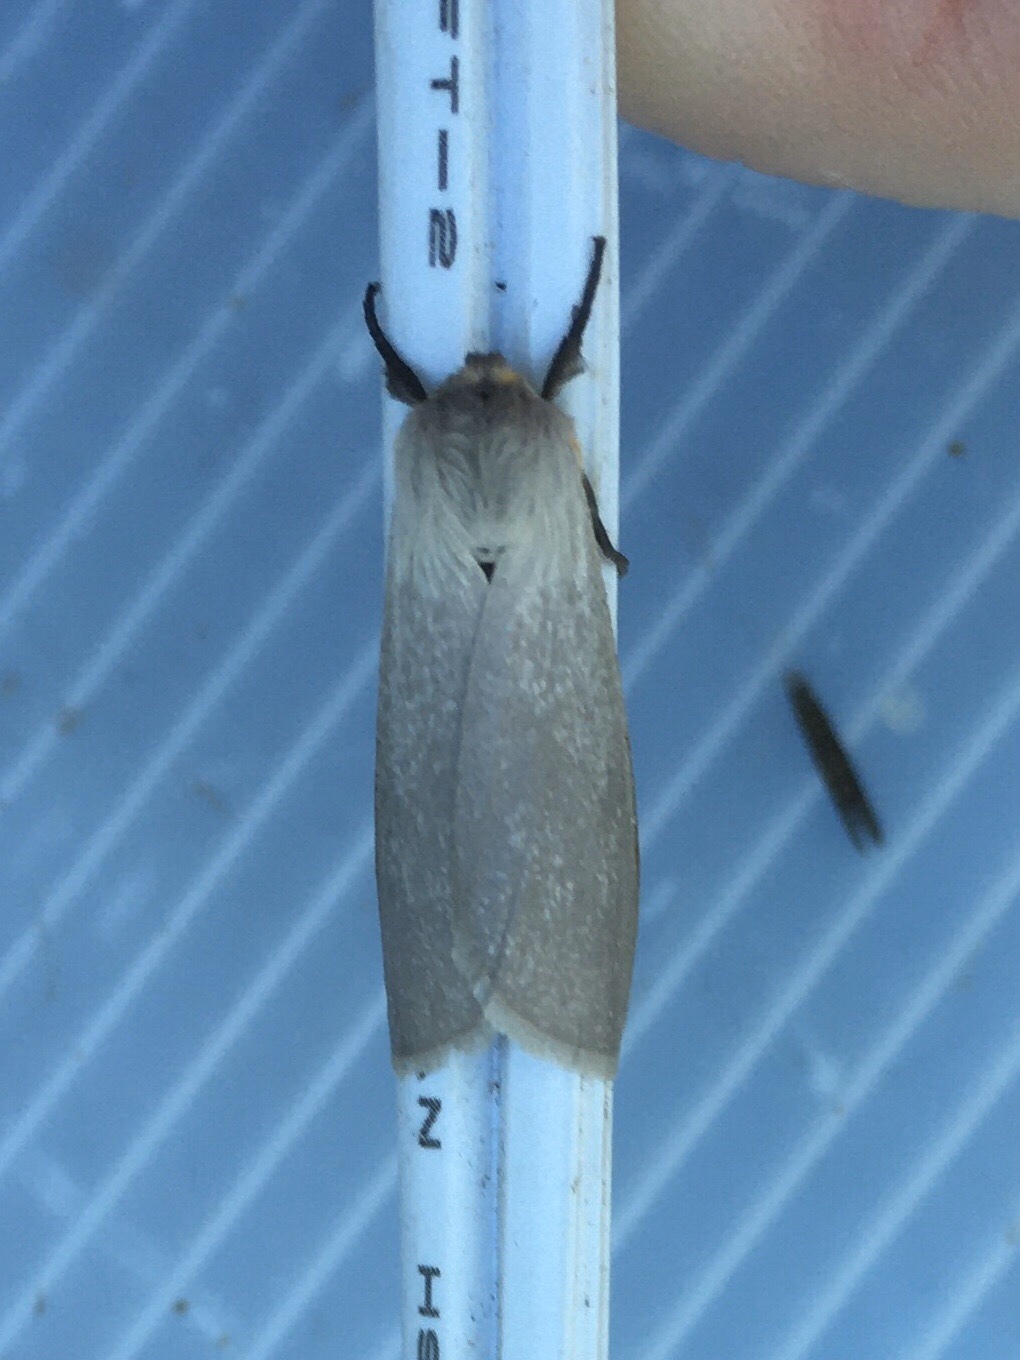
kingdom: Animalia
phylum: Arthropoda
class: Insecta
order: Lepidoptera
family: Erebidae
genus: Euchaetes
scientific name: Euchaetes egle
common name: Milkweed tussock moth
